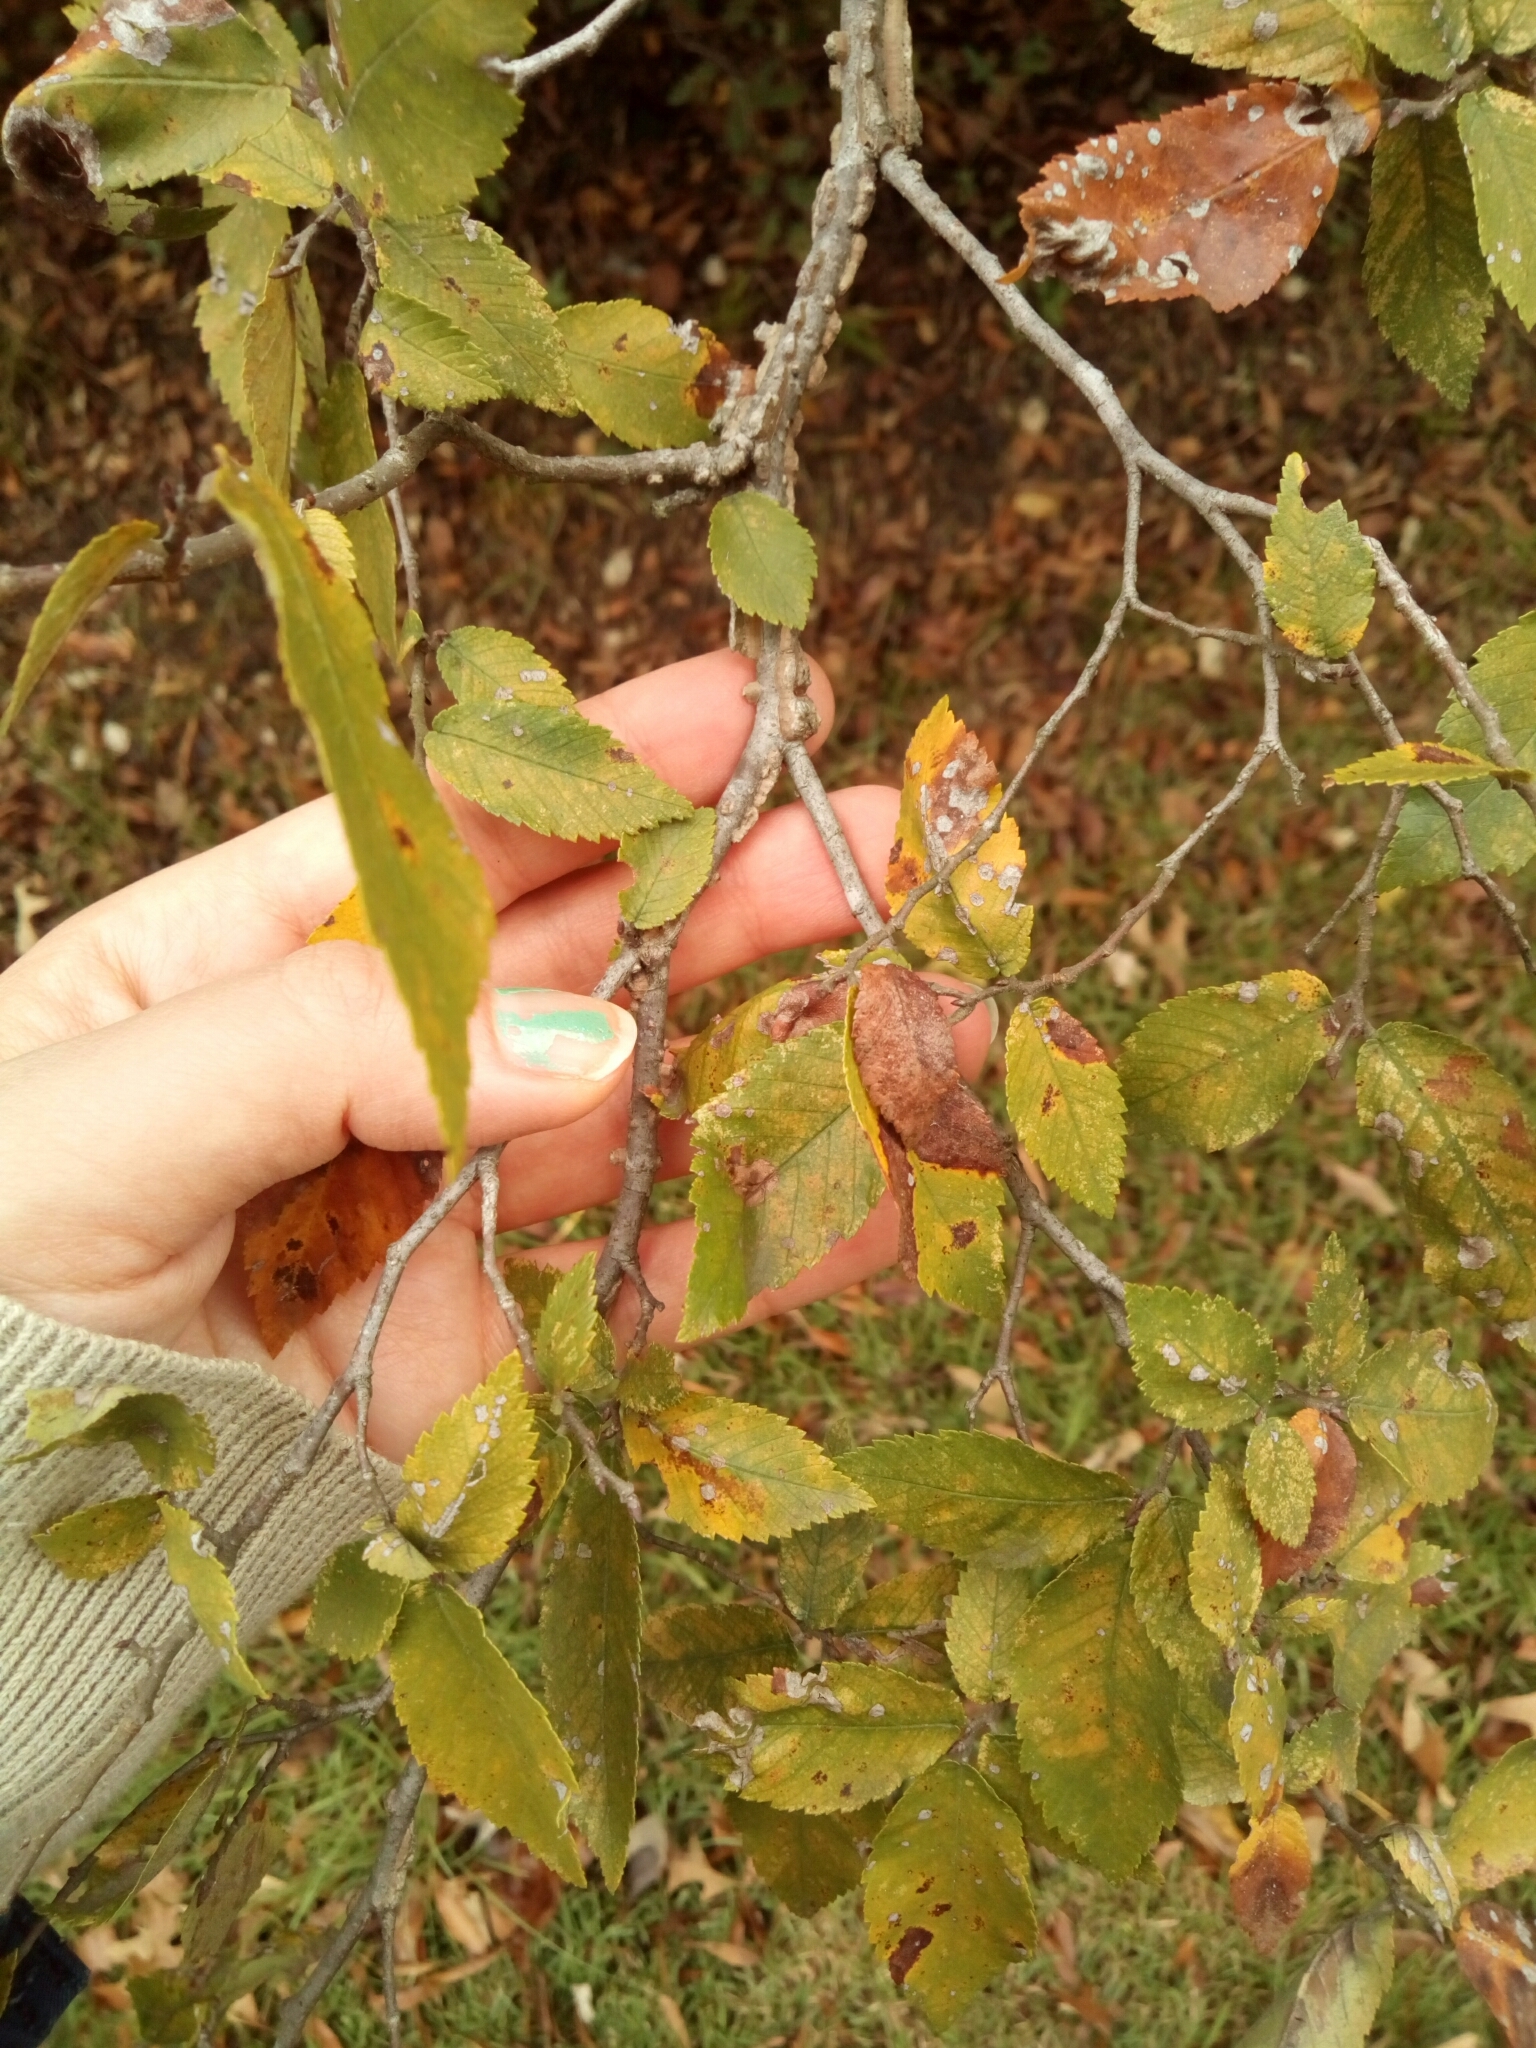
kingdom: Plantae
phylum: Tracheophyta
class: Magnoliopsida
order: Rosales
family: Ulmaceae
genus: Ulmus
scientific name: Ulmus alata
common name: Winged elm
